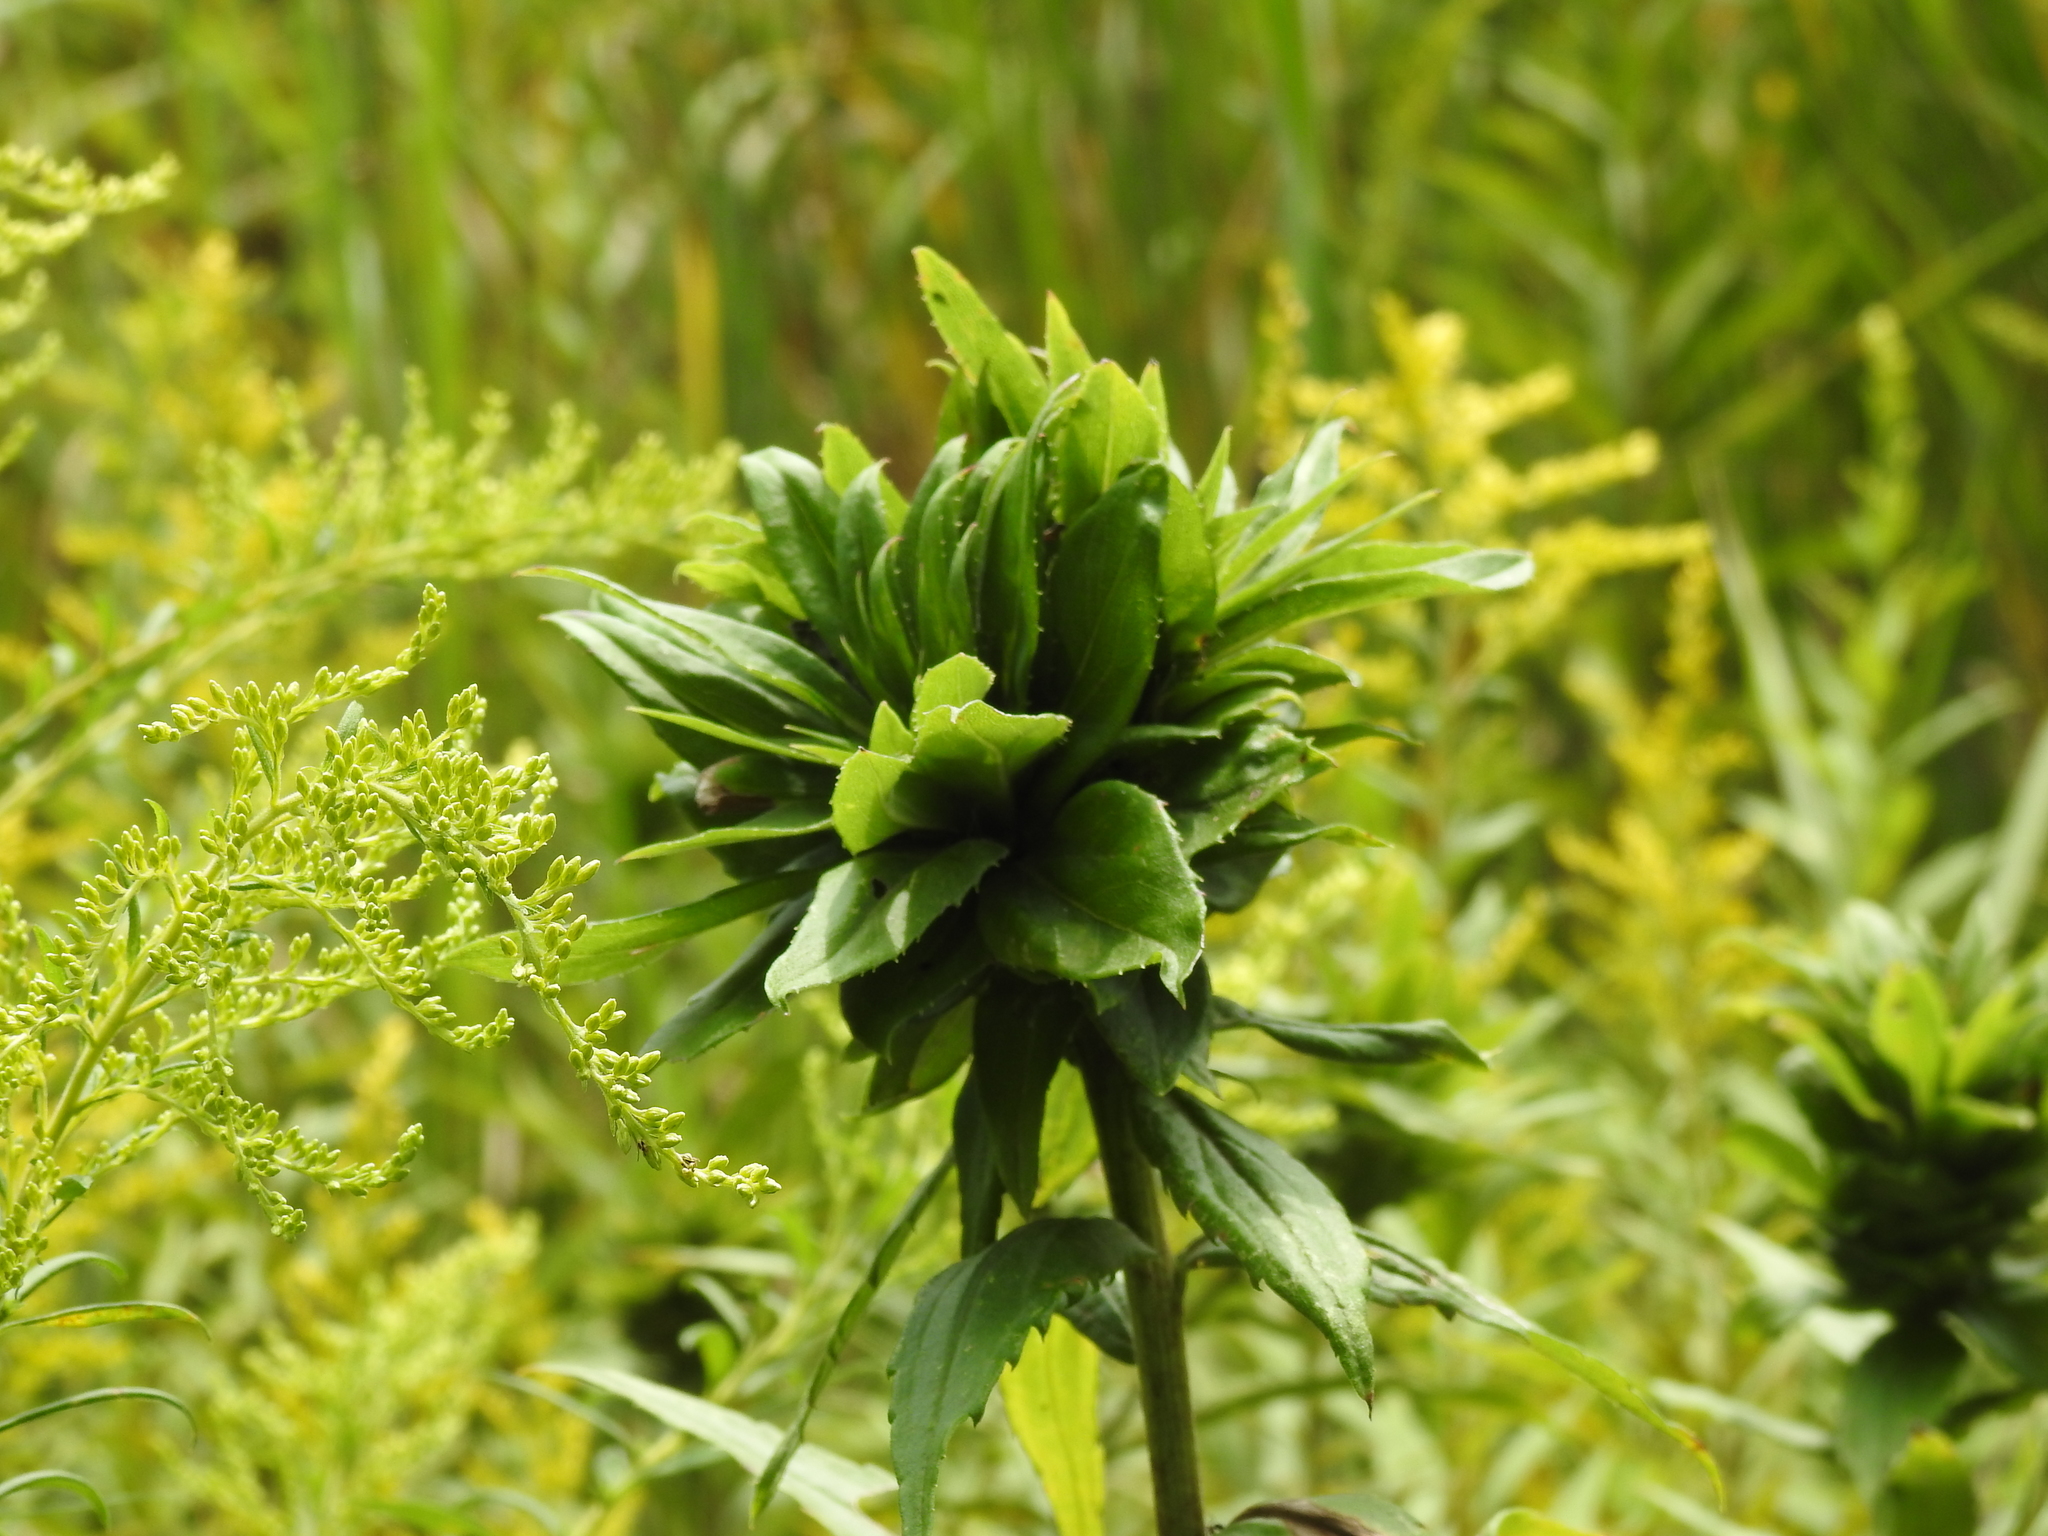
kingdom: Animalia
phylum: Arthropoda
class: Insecta
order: Diptera
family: Cecidomyiidae
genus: Rhopalomyia
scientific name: Rhopalomyia solidaginis
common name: Goldenrod bunch gall midge
